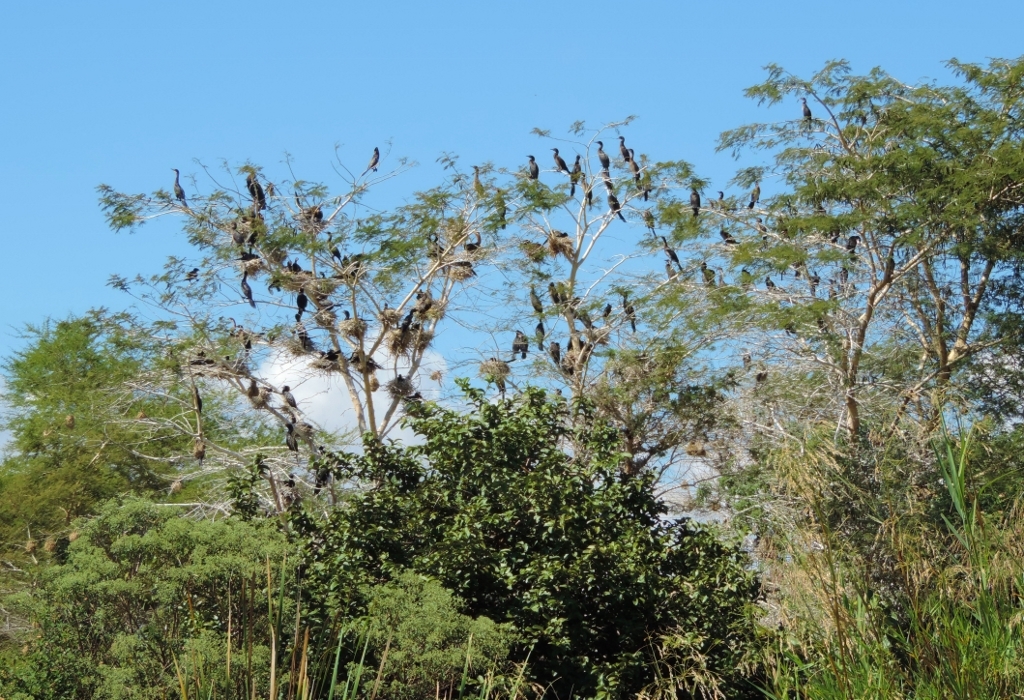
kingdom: Animalia
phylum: Chordata
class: Aves
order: Suliformes
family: Phalacrocoracidae
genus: Microcarbo
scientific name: Microcarbo africanus
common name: Long-tailed cormorant
